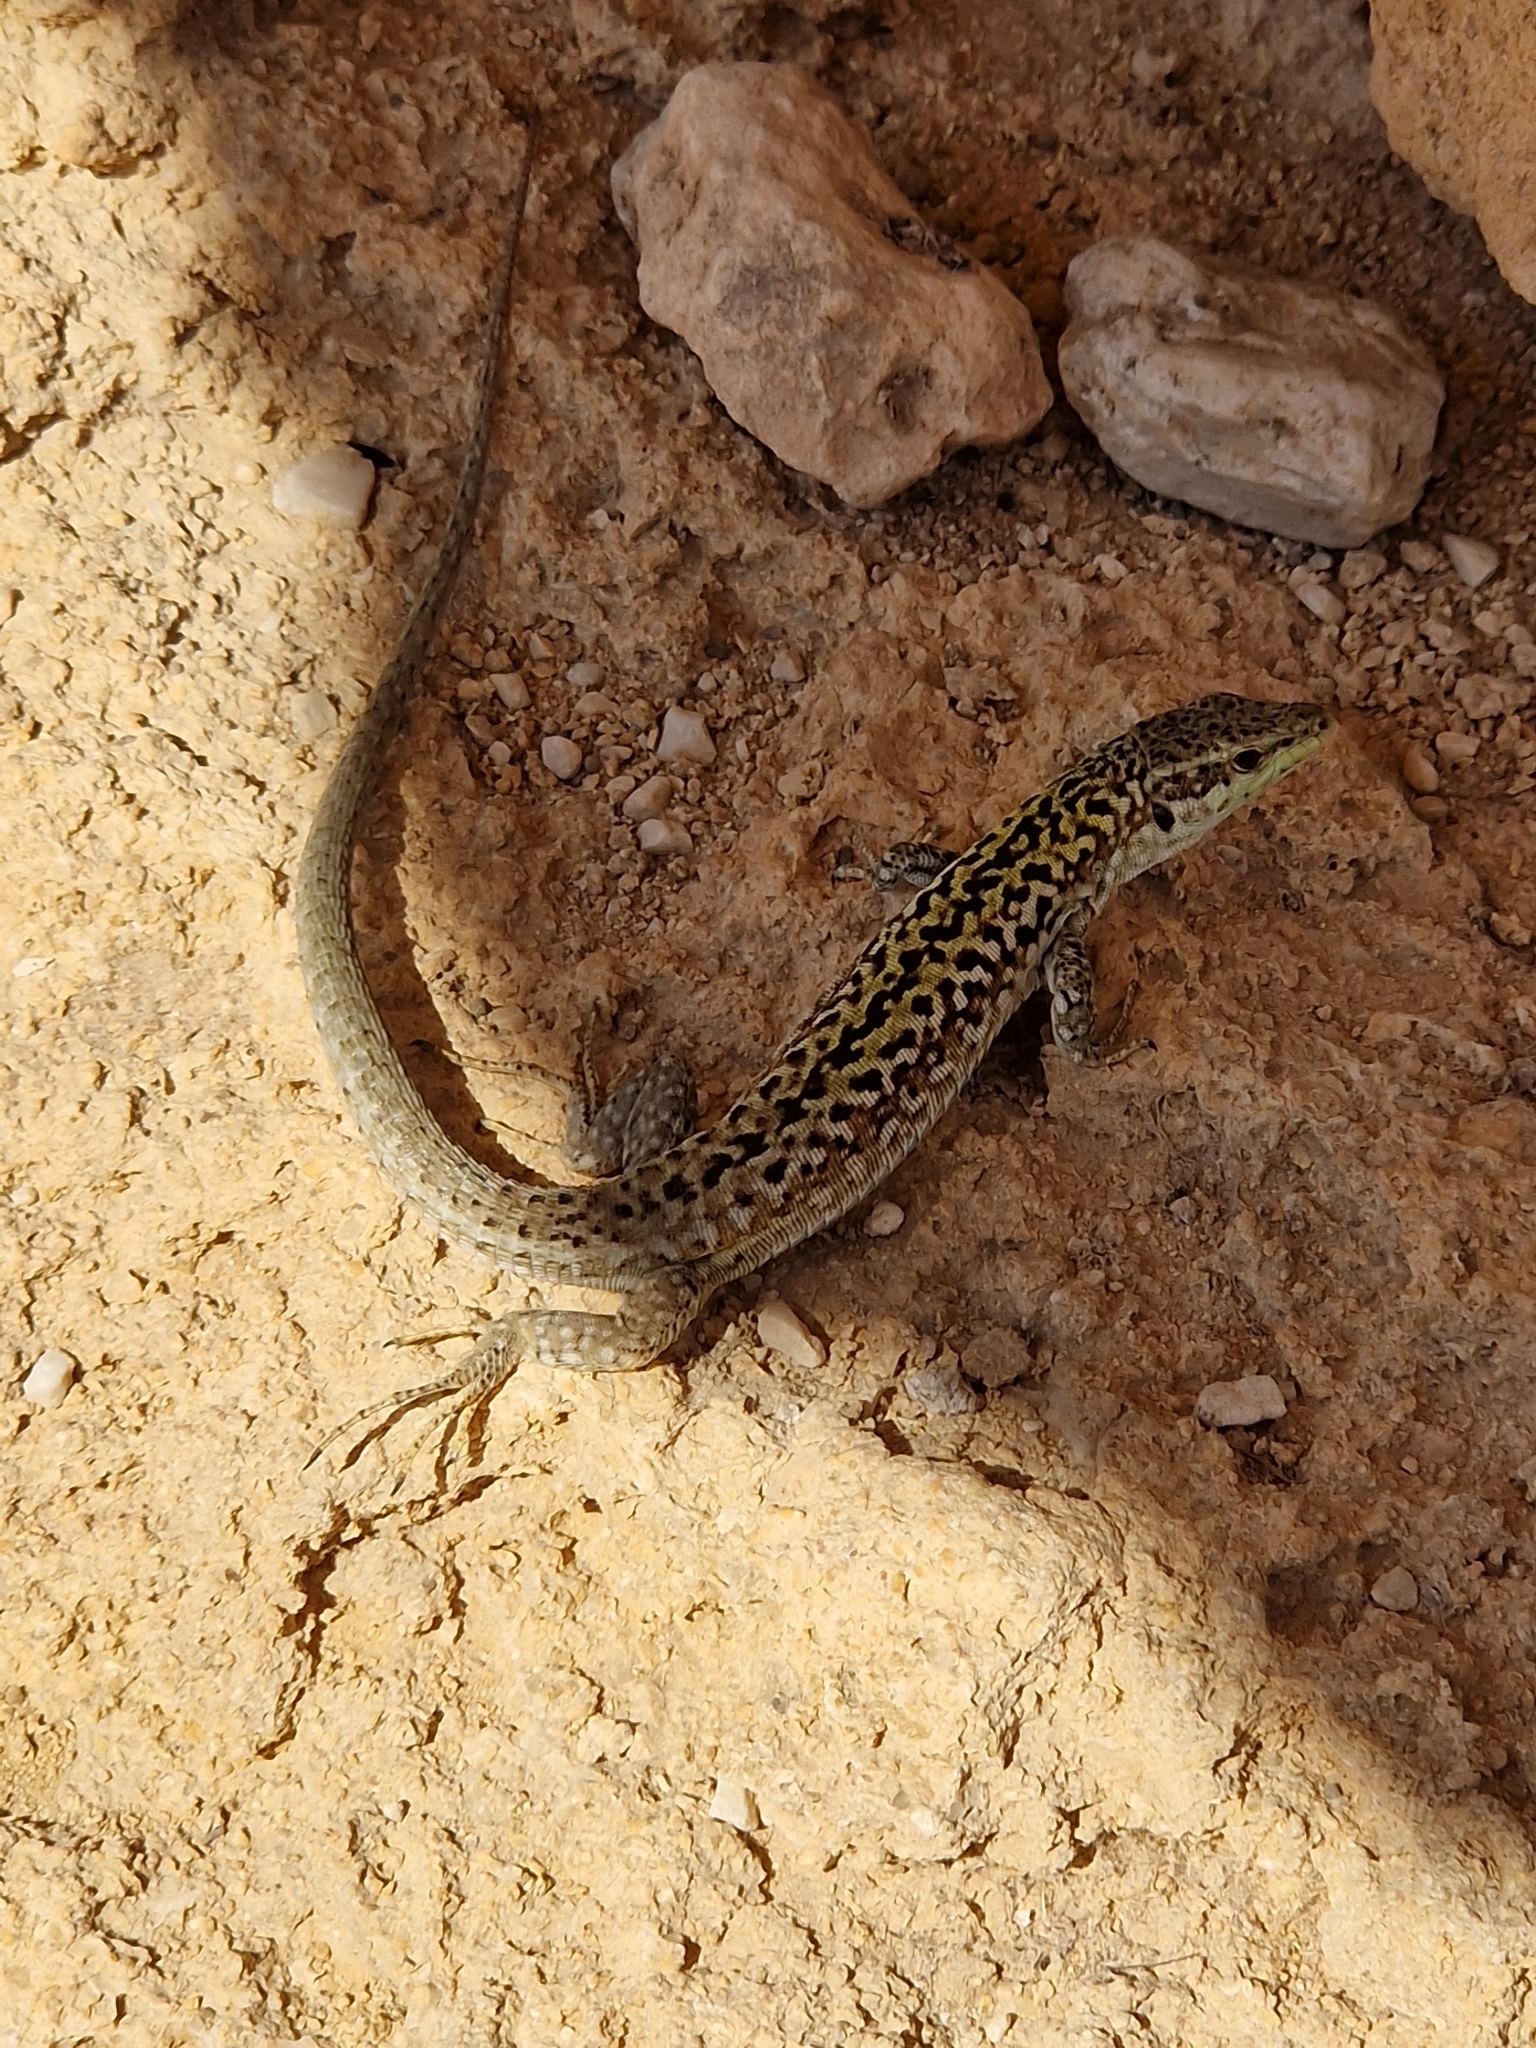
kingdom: Animalia
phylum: Chordata
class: Squamata
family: Lacertidae
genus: Podarcis
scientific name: Podarcis siculus
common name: Italian wall lizard
